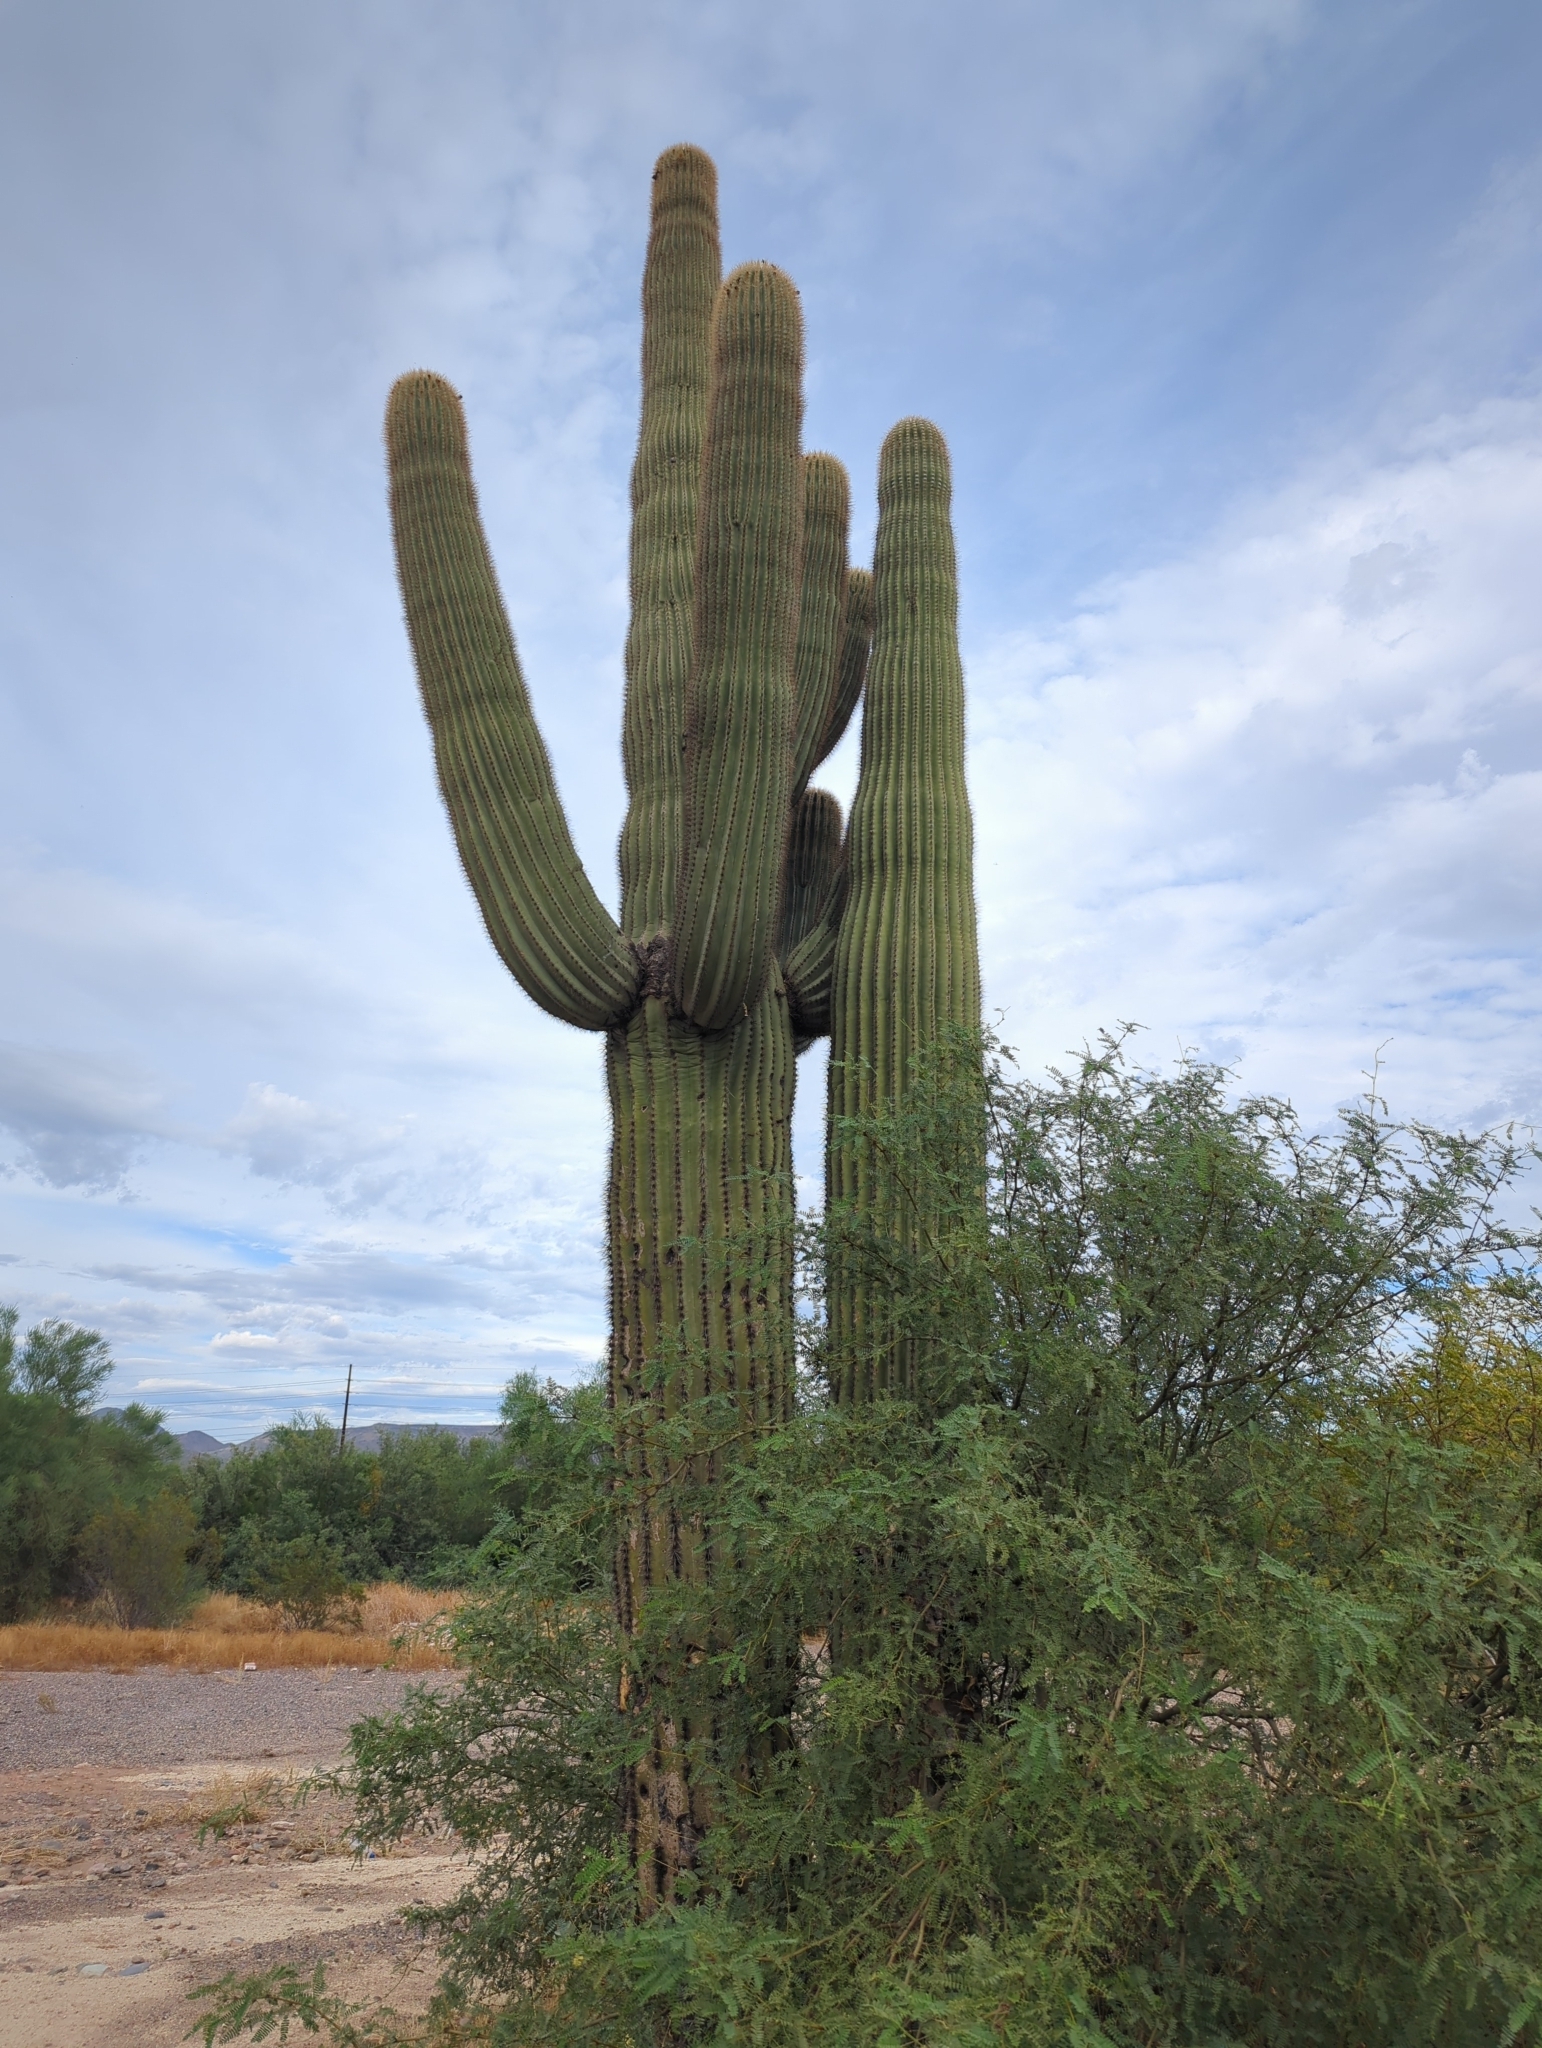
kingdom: Plantae
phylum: Tracheophyta
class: Magnoliopsida
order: Caryophyllales
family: Cactaceae
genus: Carnegiea
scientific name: Carnegiea gigantea
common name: Saguaro
